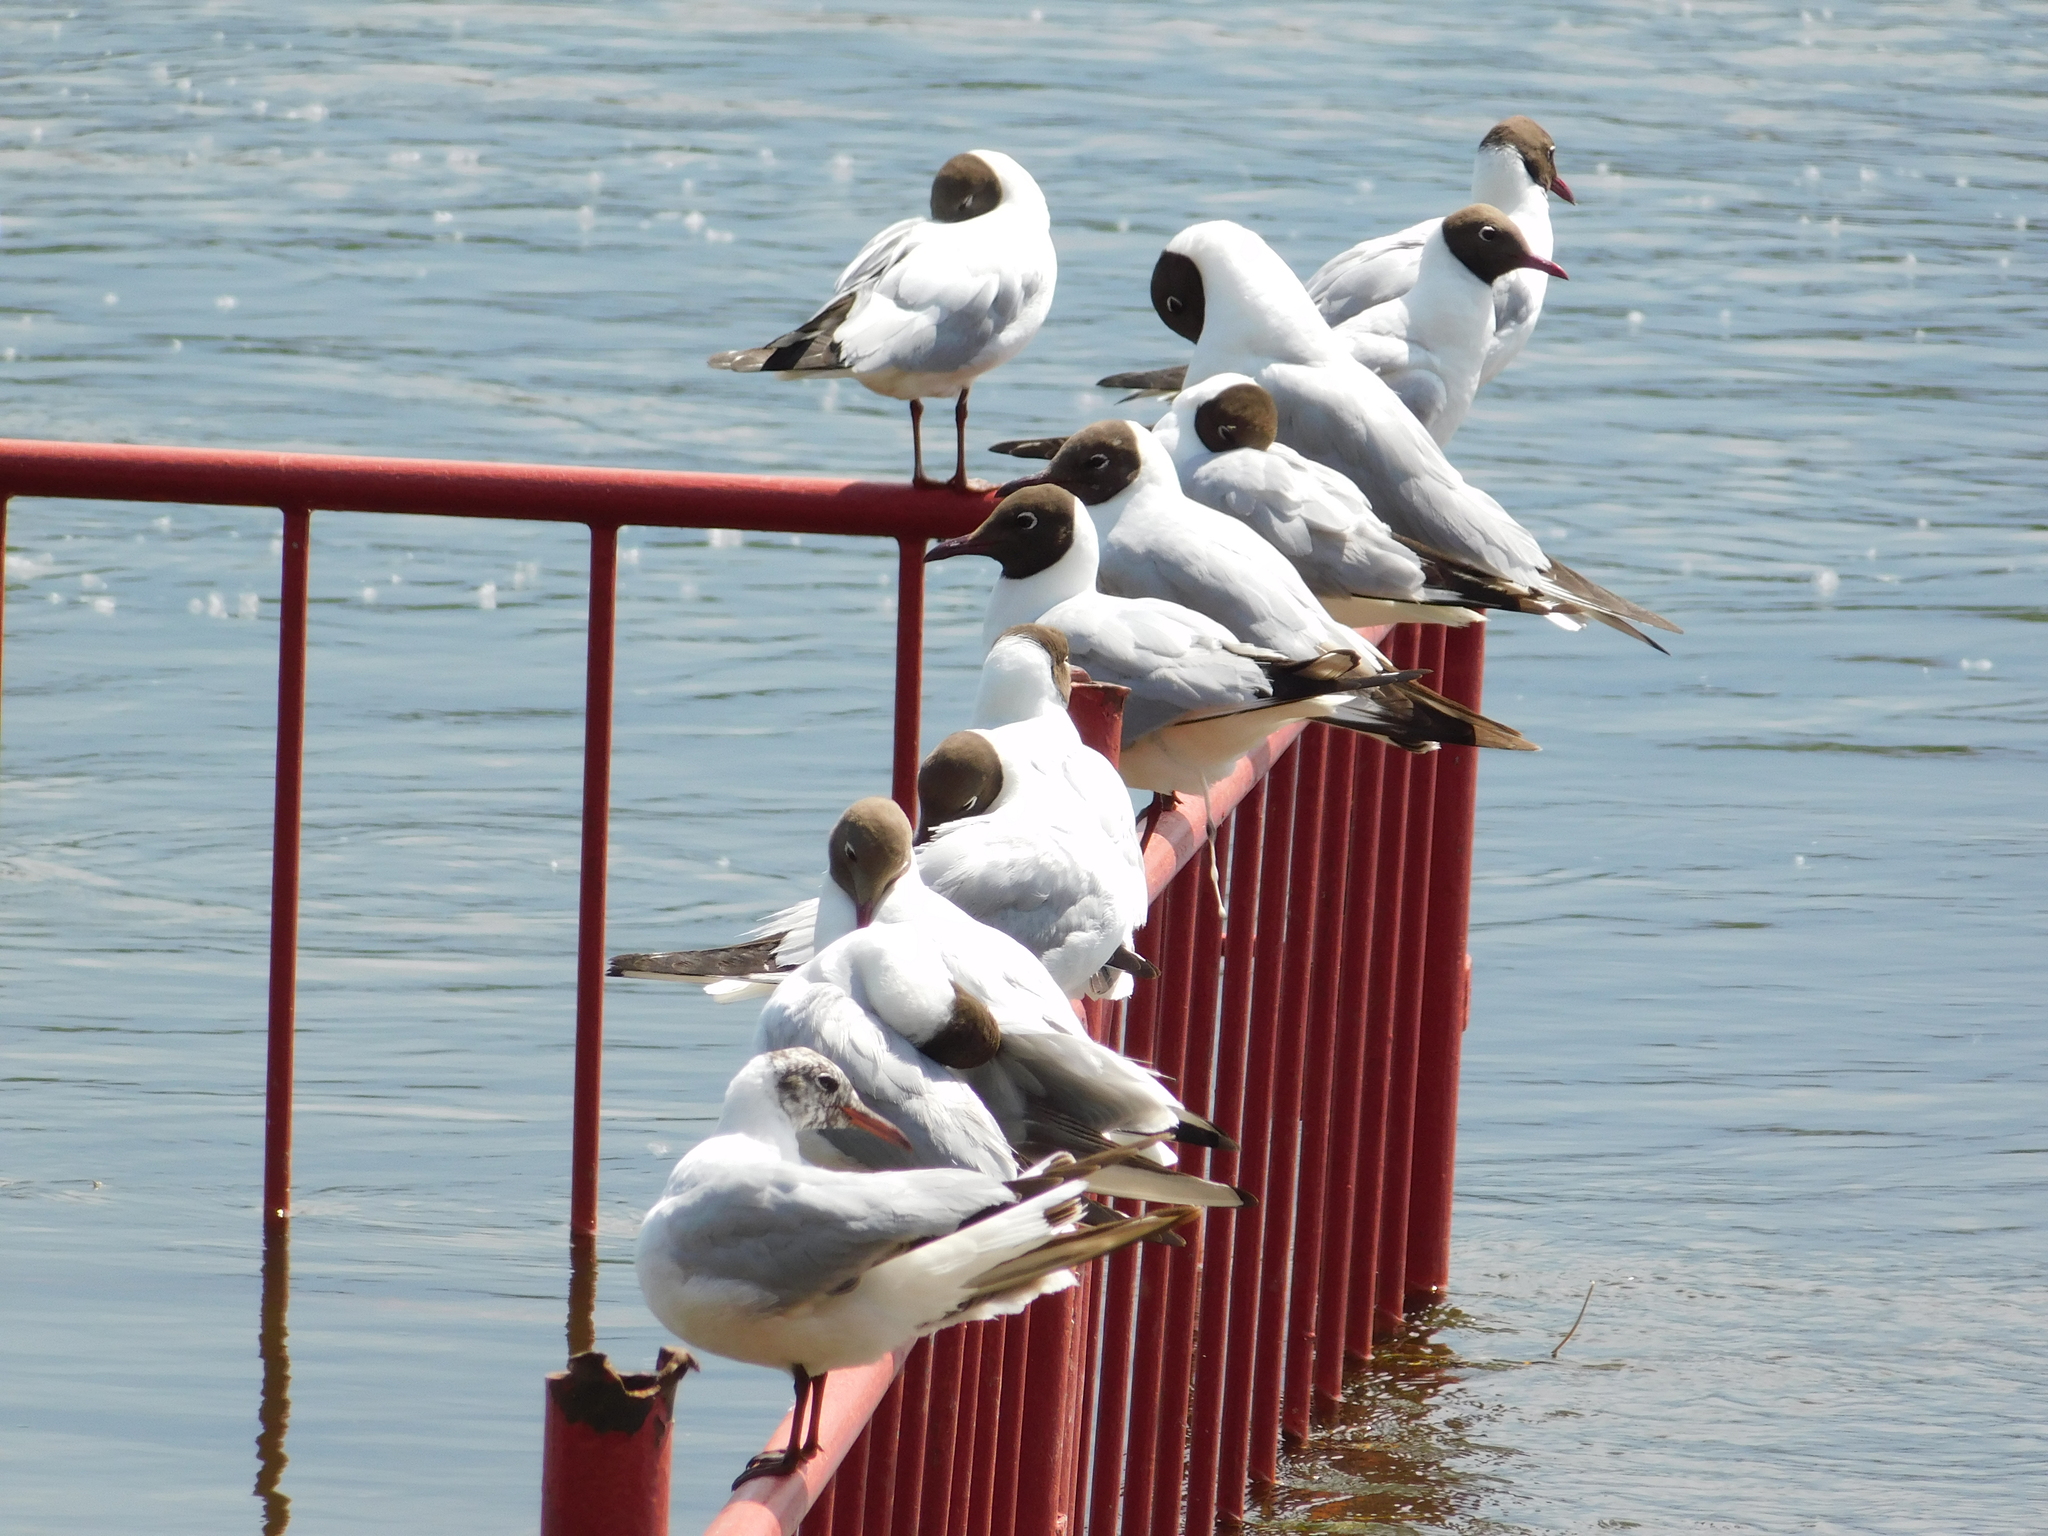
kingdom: Animalia
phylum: Chordata
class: Aves
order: Charadriiformes
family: Laridae
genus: Chroicocephalus
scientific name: Chroicocephalus ridibundus
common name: Black-headed gull
